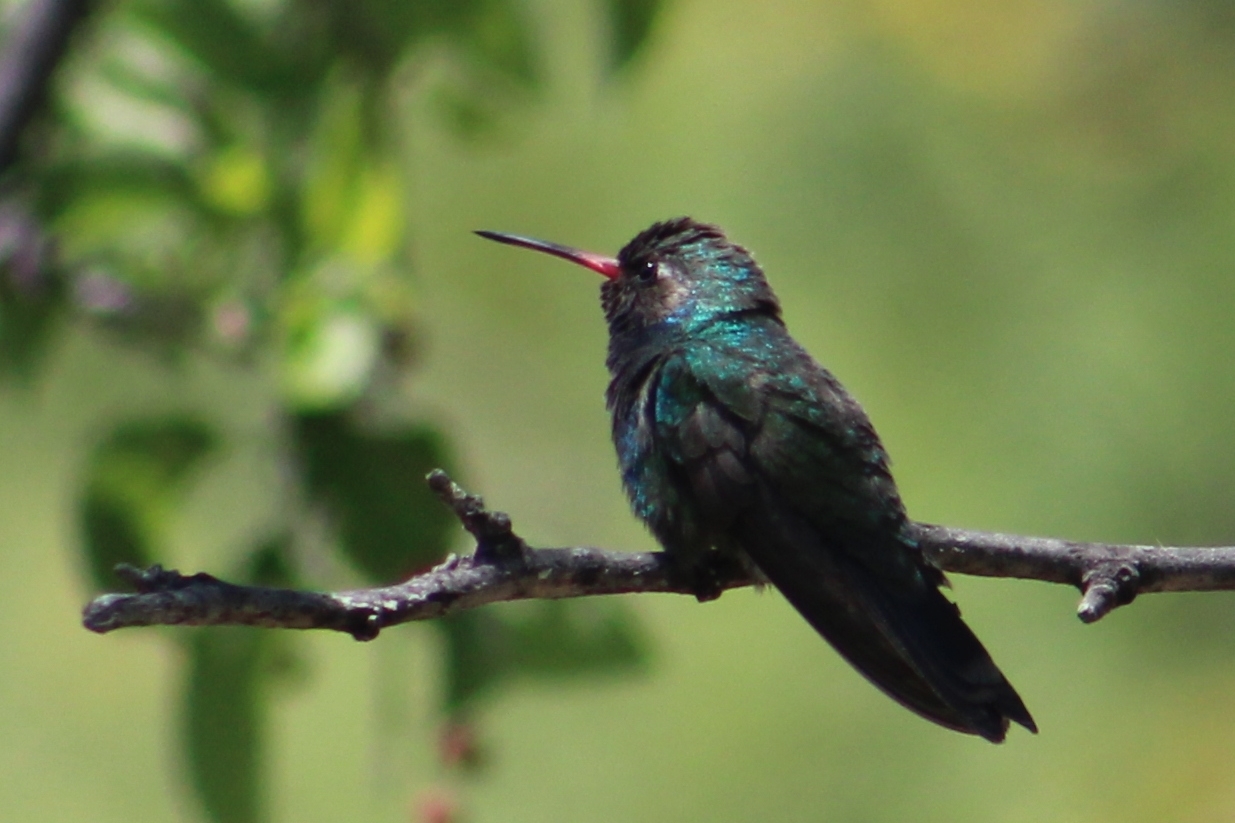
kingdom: Animalia
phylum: Chordata
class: Aves
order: Apodiformes
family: Trochilidae
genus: Cynanthus
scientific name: Cynanthus latirostris
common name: Broad-billed hummingbird
